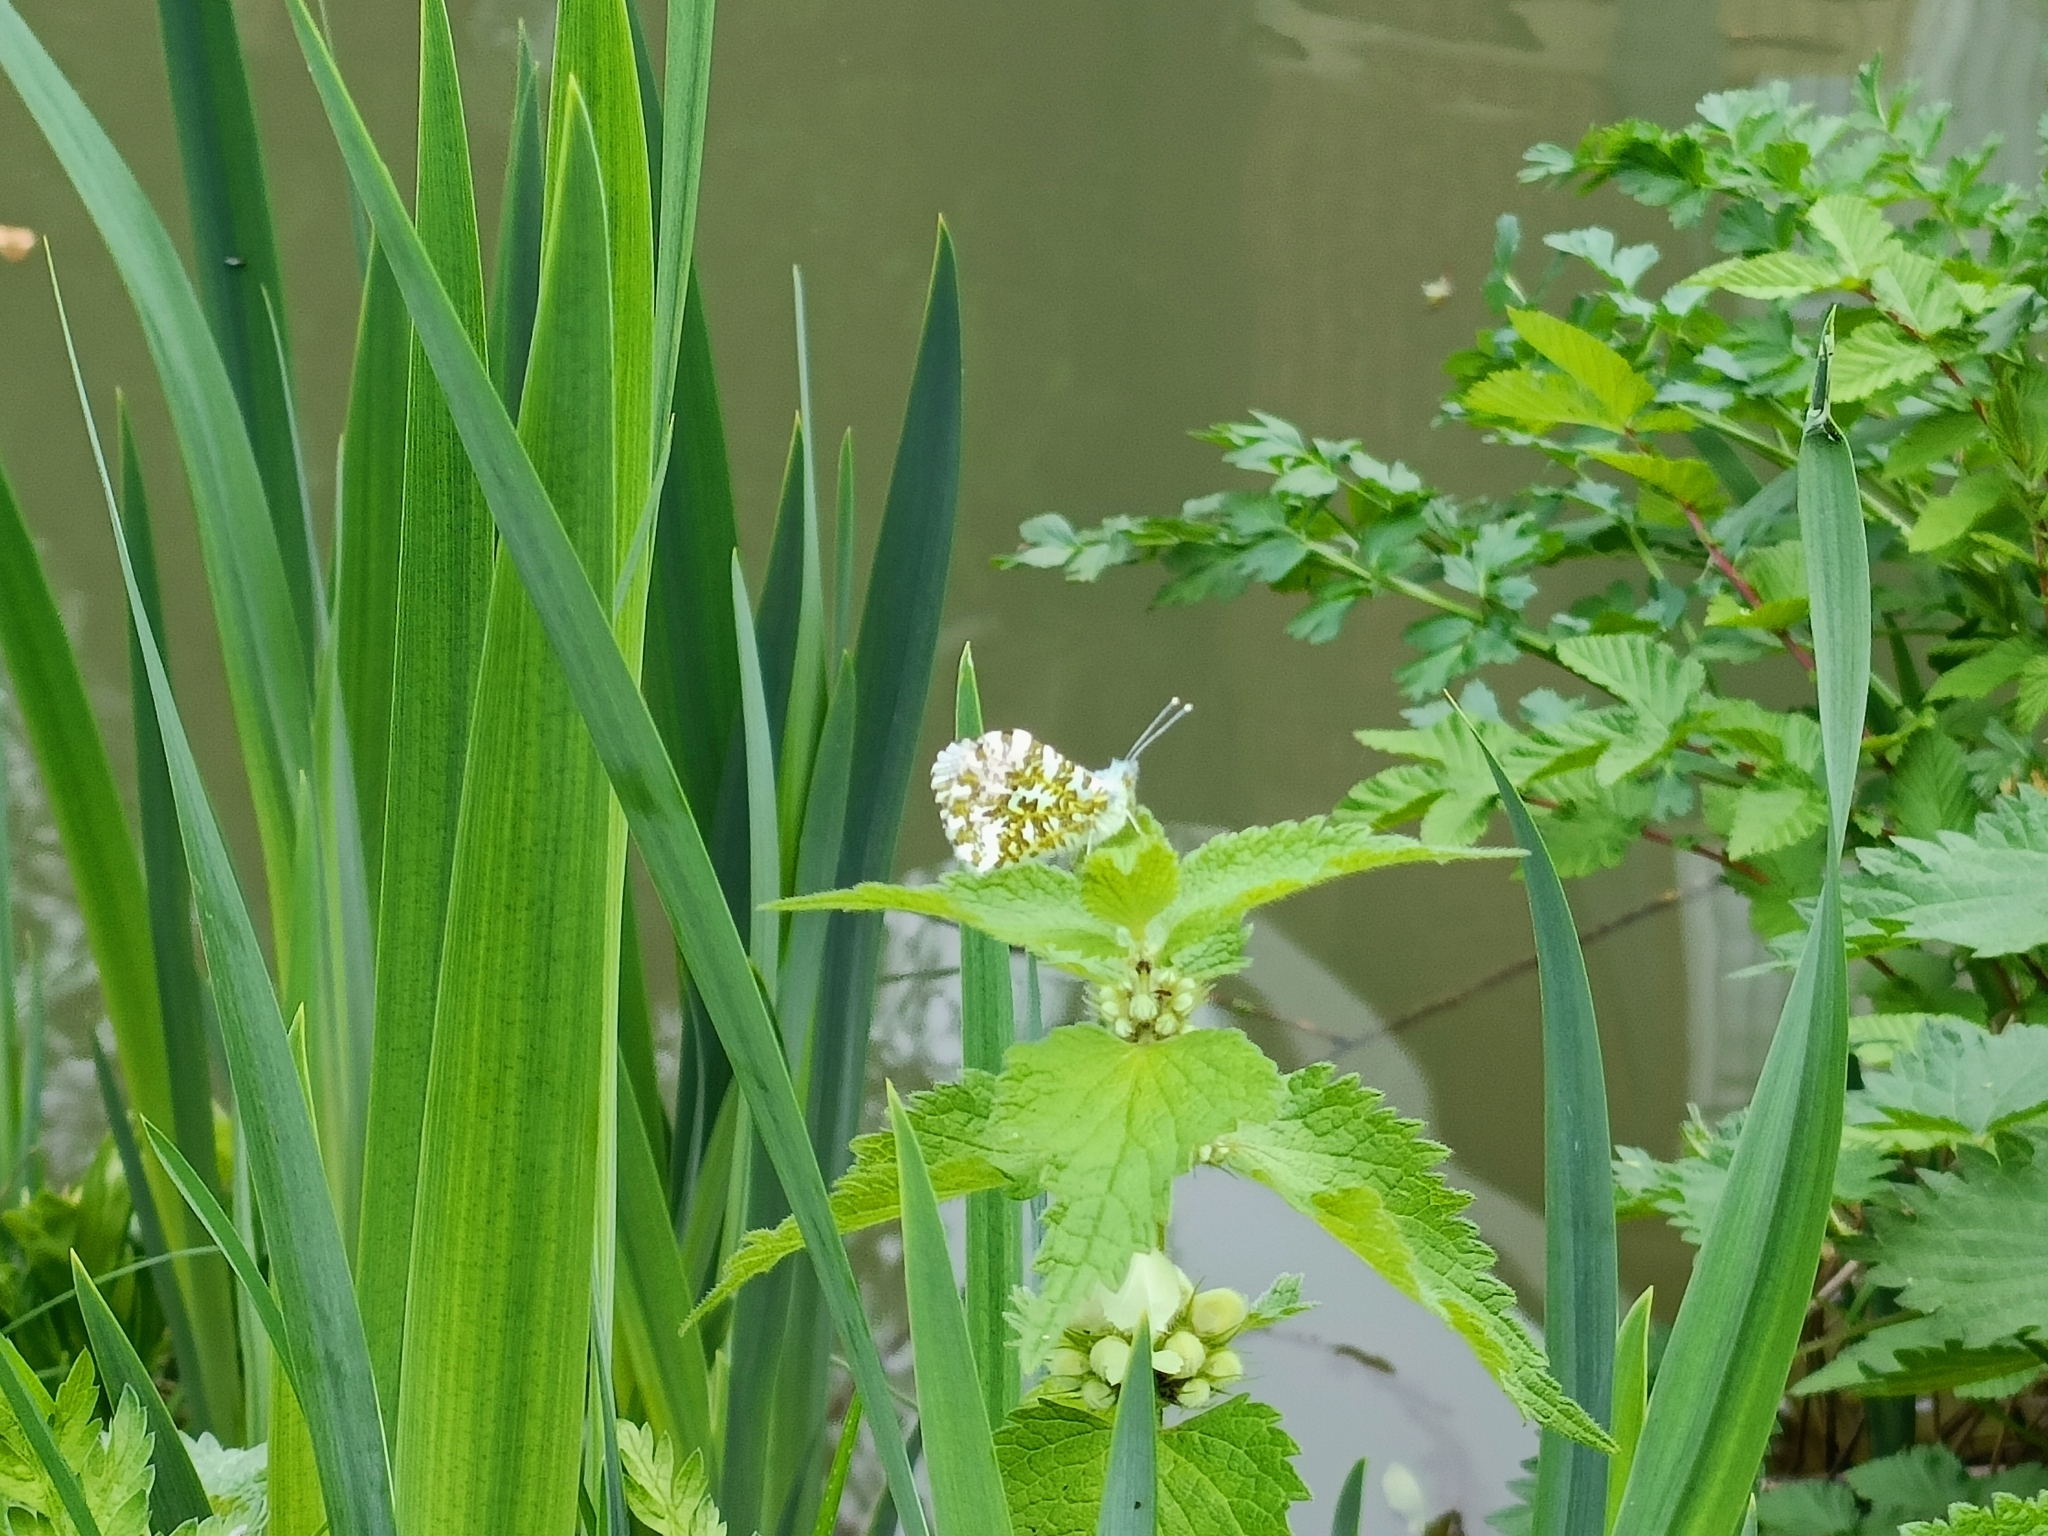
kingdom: Animalia
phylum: Arthropoda
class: Insecta
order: Lepidoptera
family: Pieridae
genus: Anthocharis
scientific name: Anthocharis cardamines
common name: Orange-tip
